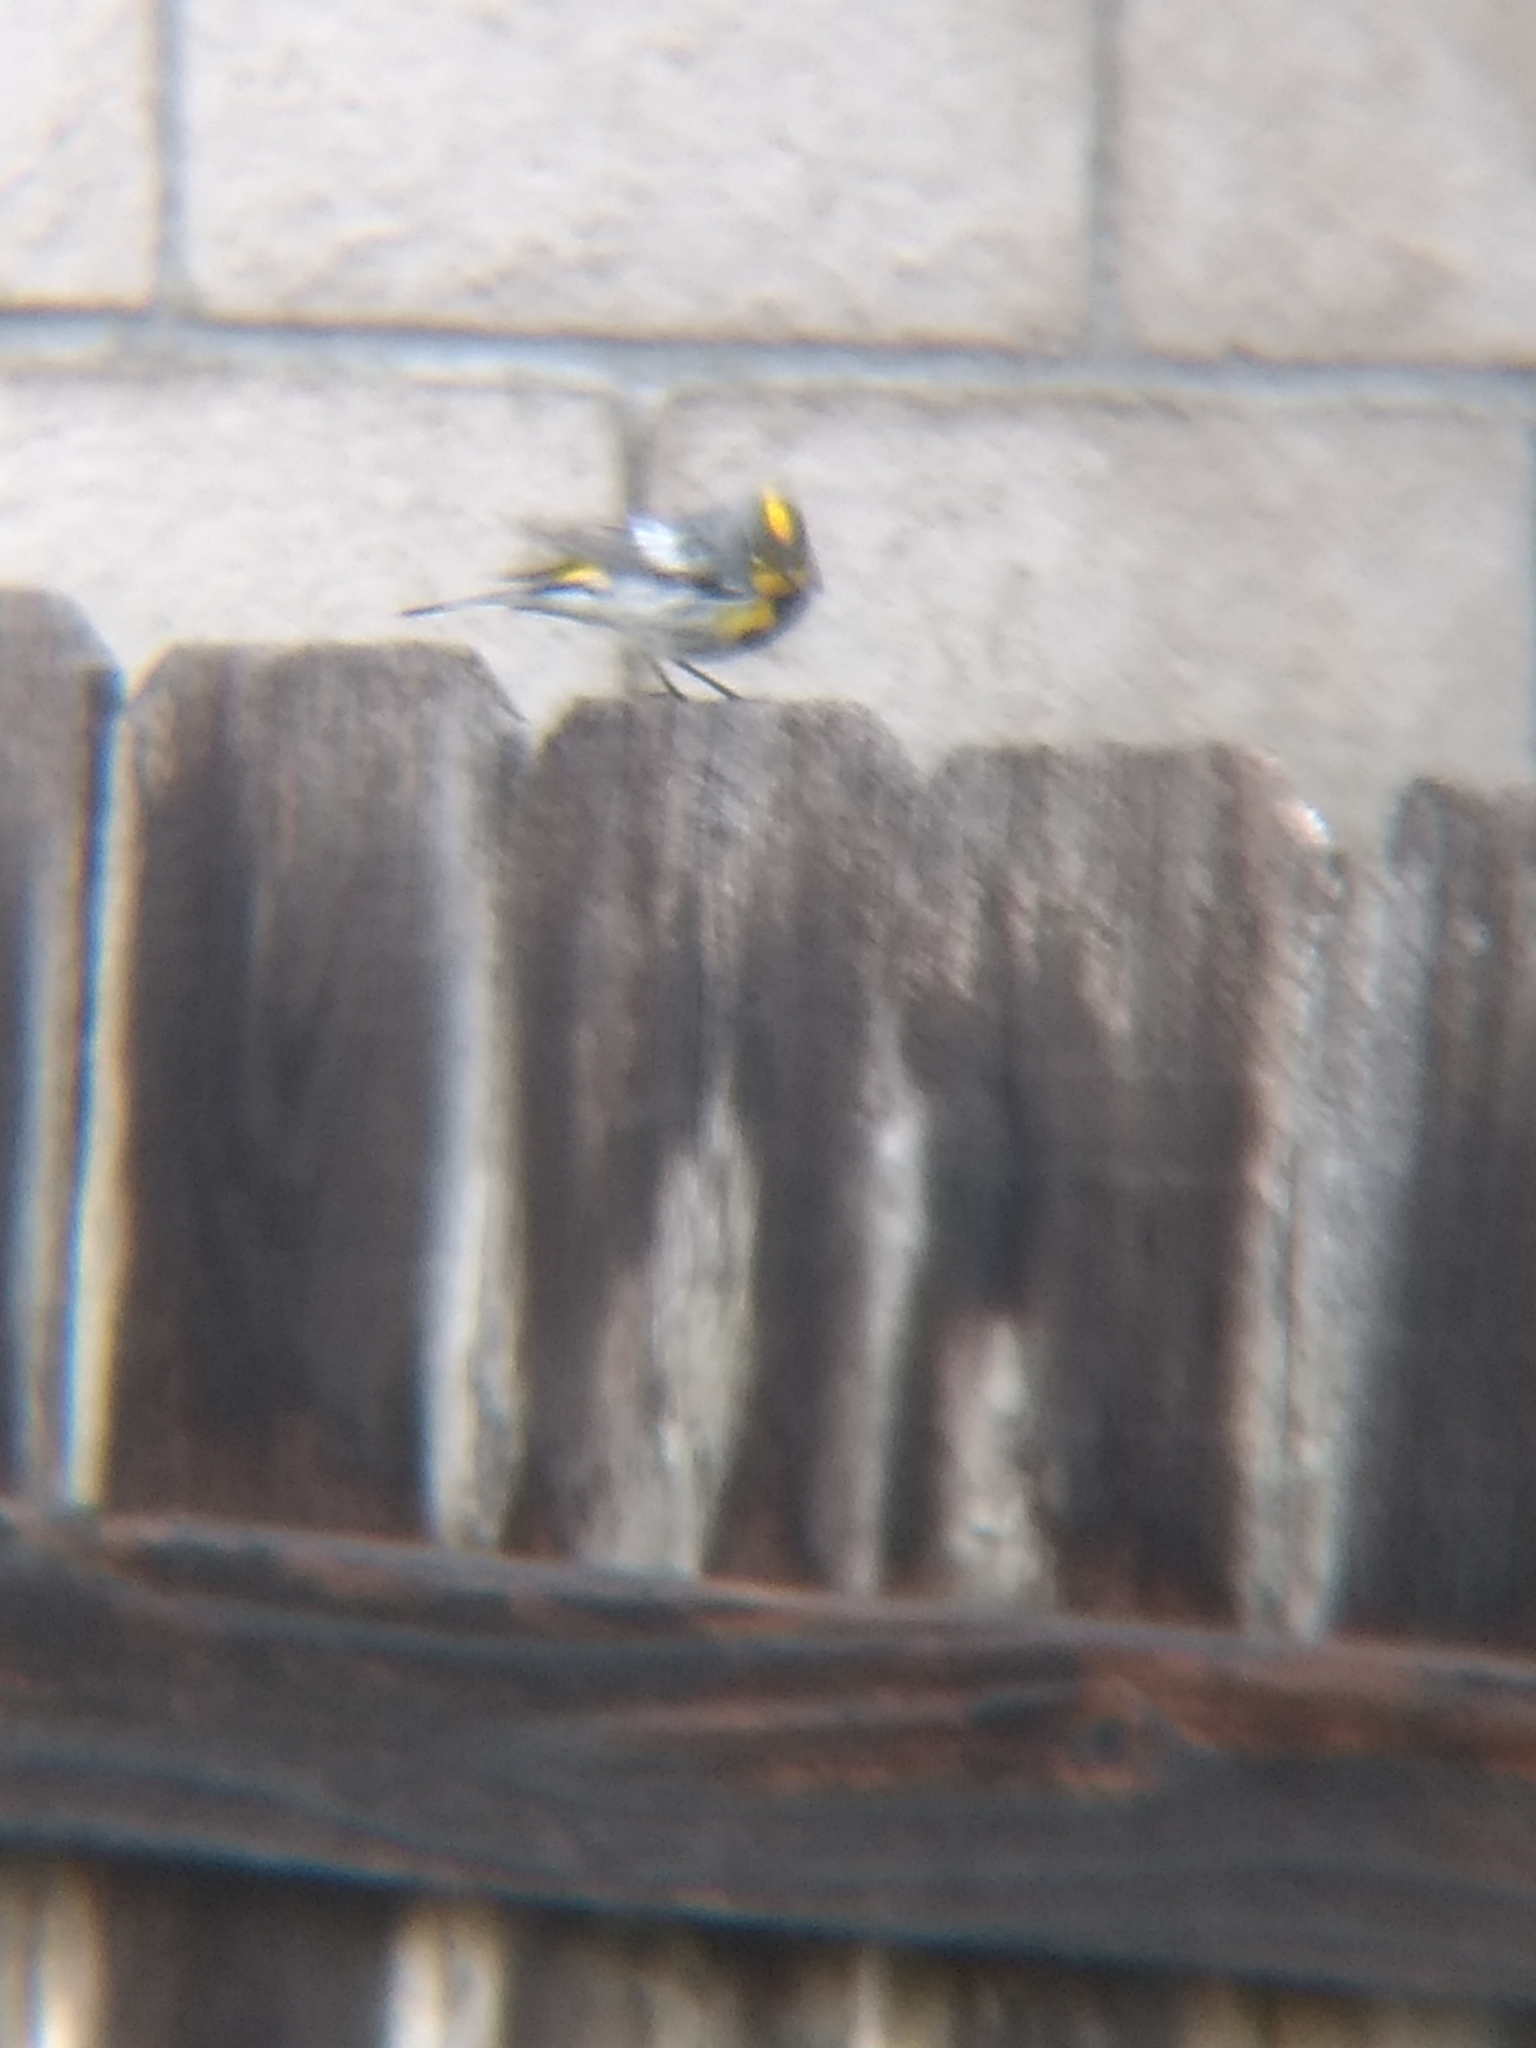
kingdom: Animalia
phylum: Chordata
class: Aves
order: Passeriformes
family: Parulidae
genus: Setophaga
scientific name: Setophaga coronata
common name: Myrtle warbler
